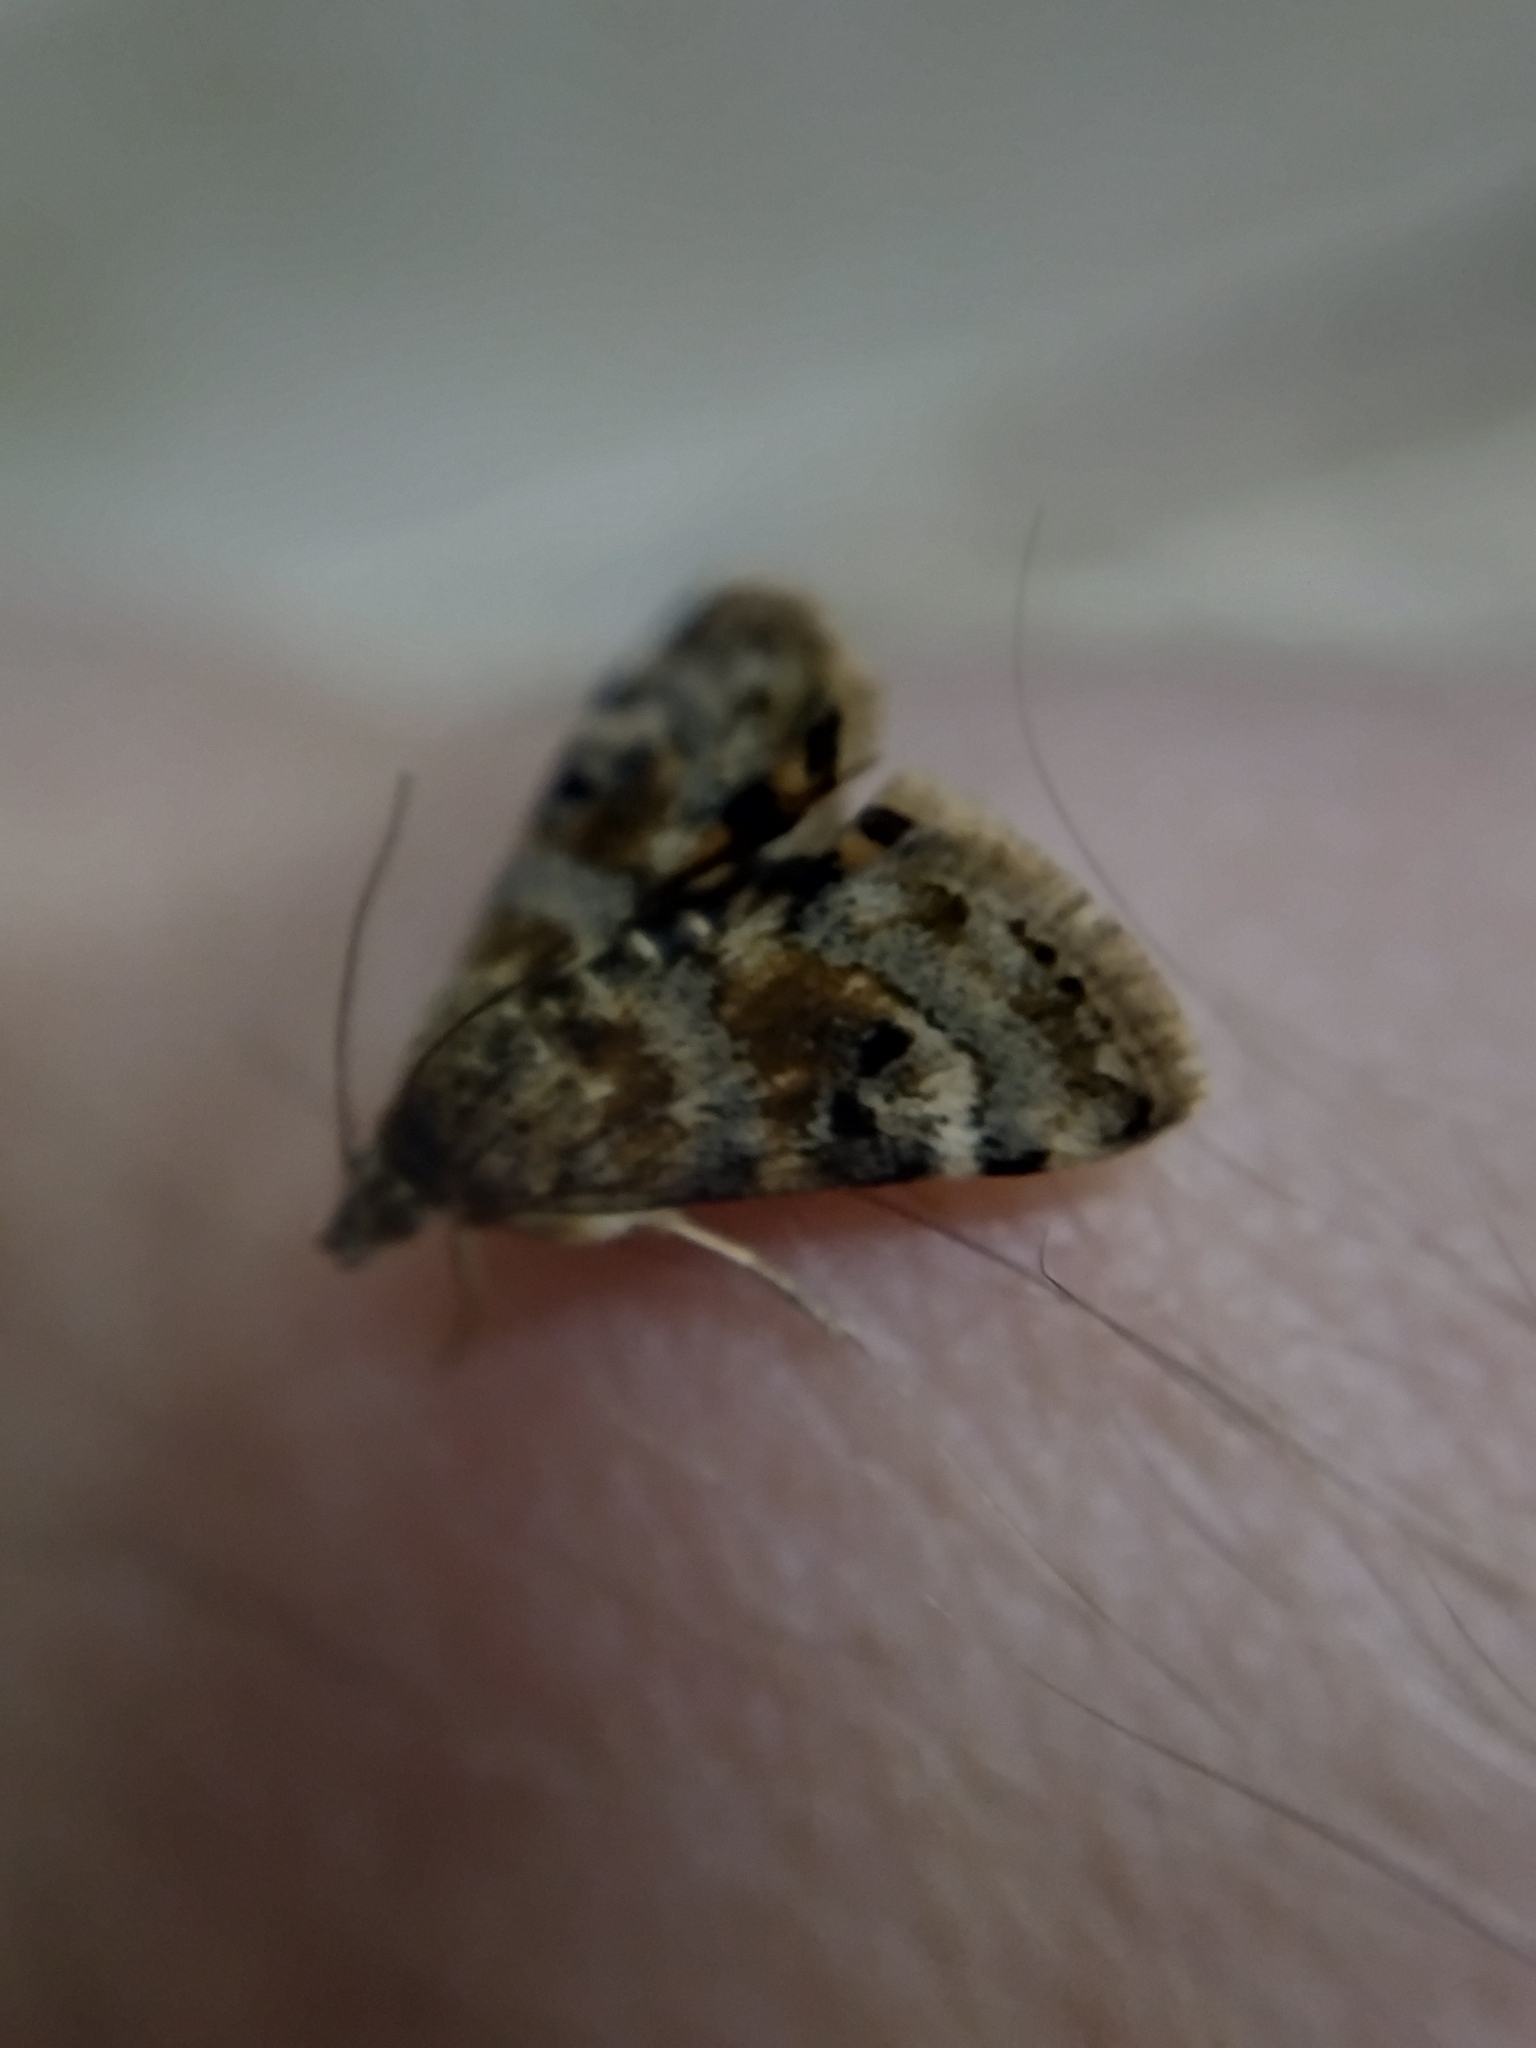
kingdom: Animalia
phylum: Arthropoda
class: Insecta
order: Lepidoptera
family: Crambidae
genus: Noctuelia
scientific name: Noctuelia Aporodes floralis
